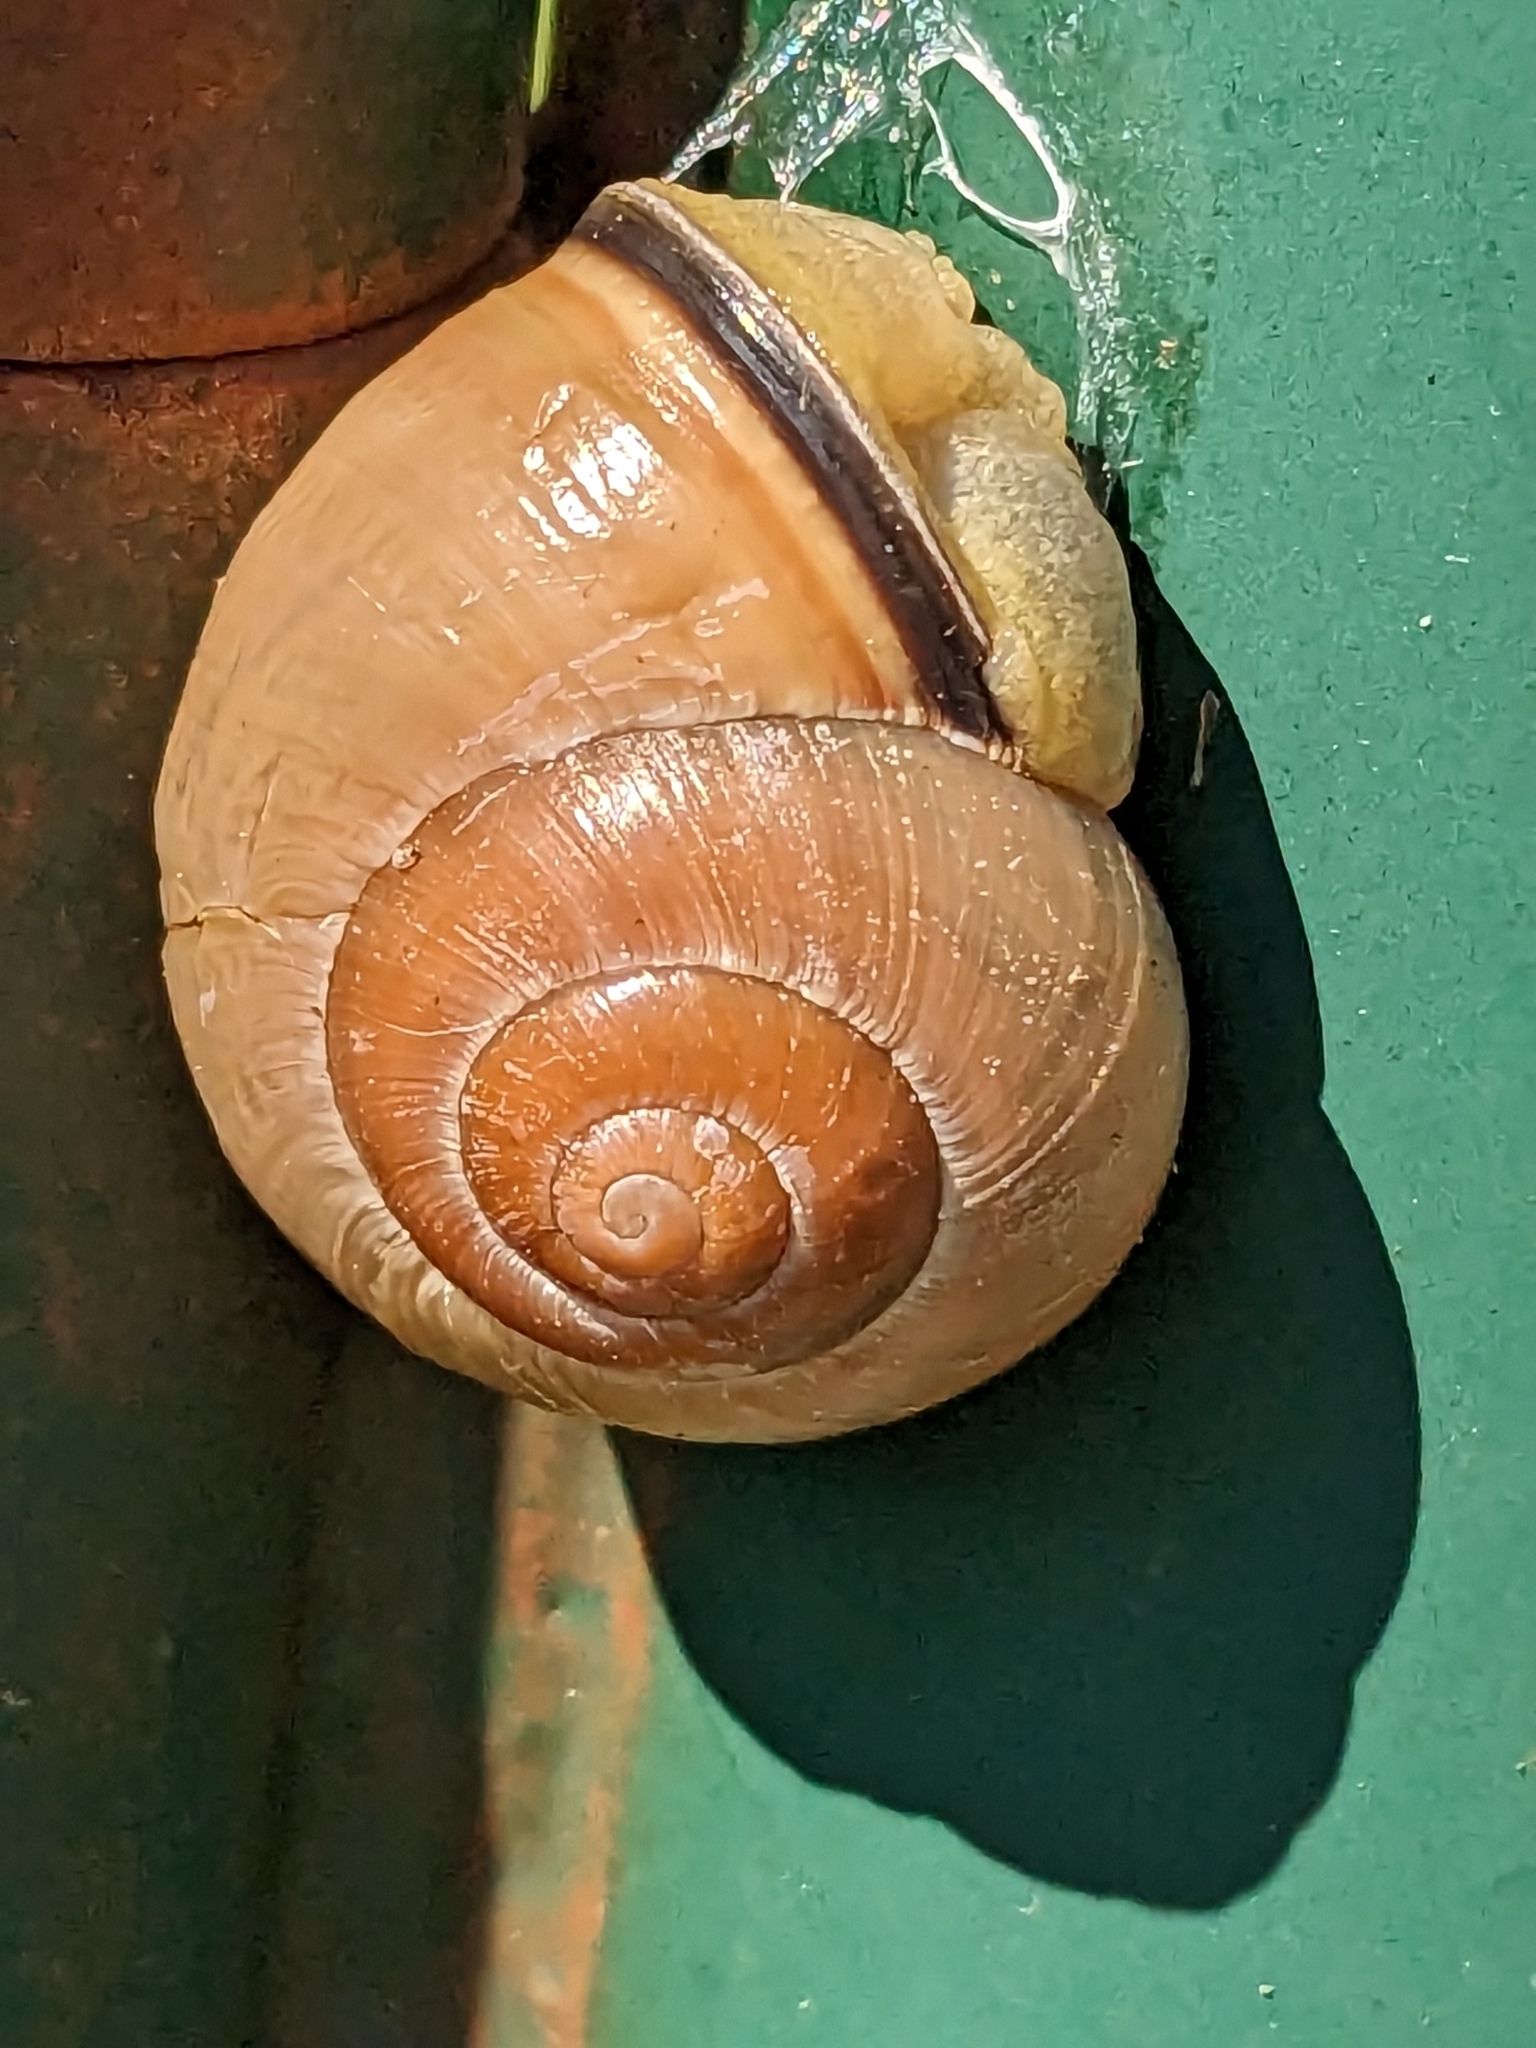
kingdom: Animalia
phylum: Mollusca
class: Gastropoda
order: Stylommatophora
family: Helicidae
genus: Cepaea
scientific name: Cepaea nemoralis
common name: Grovesnail
